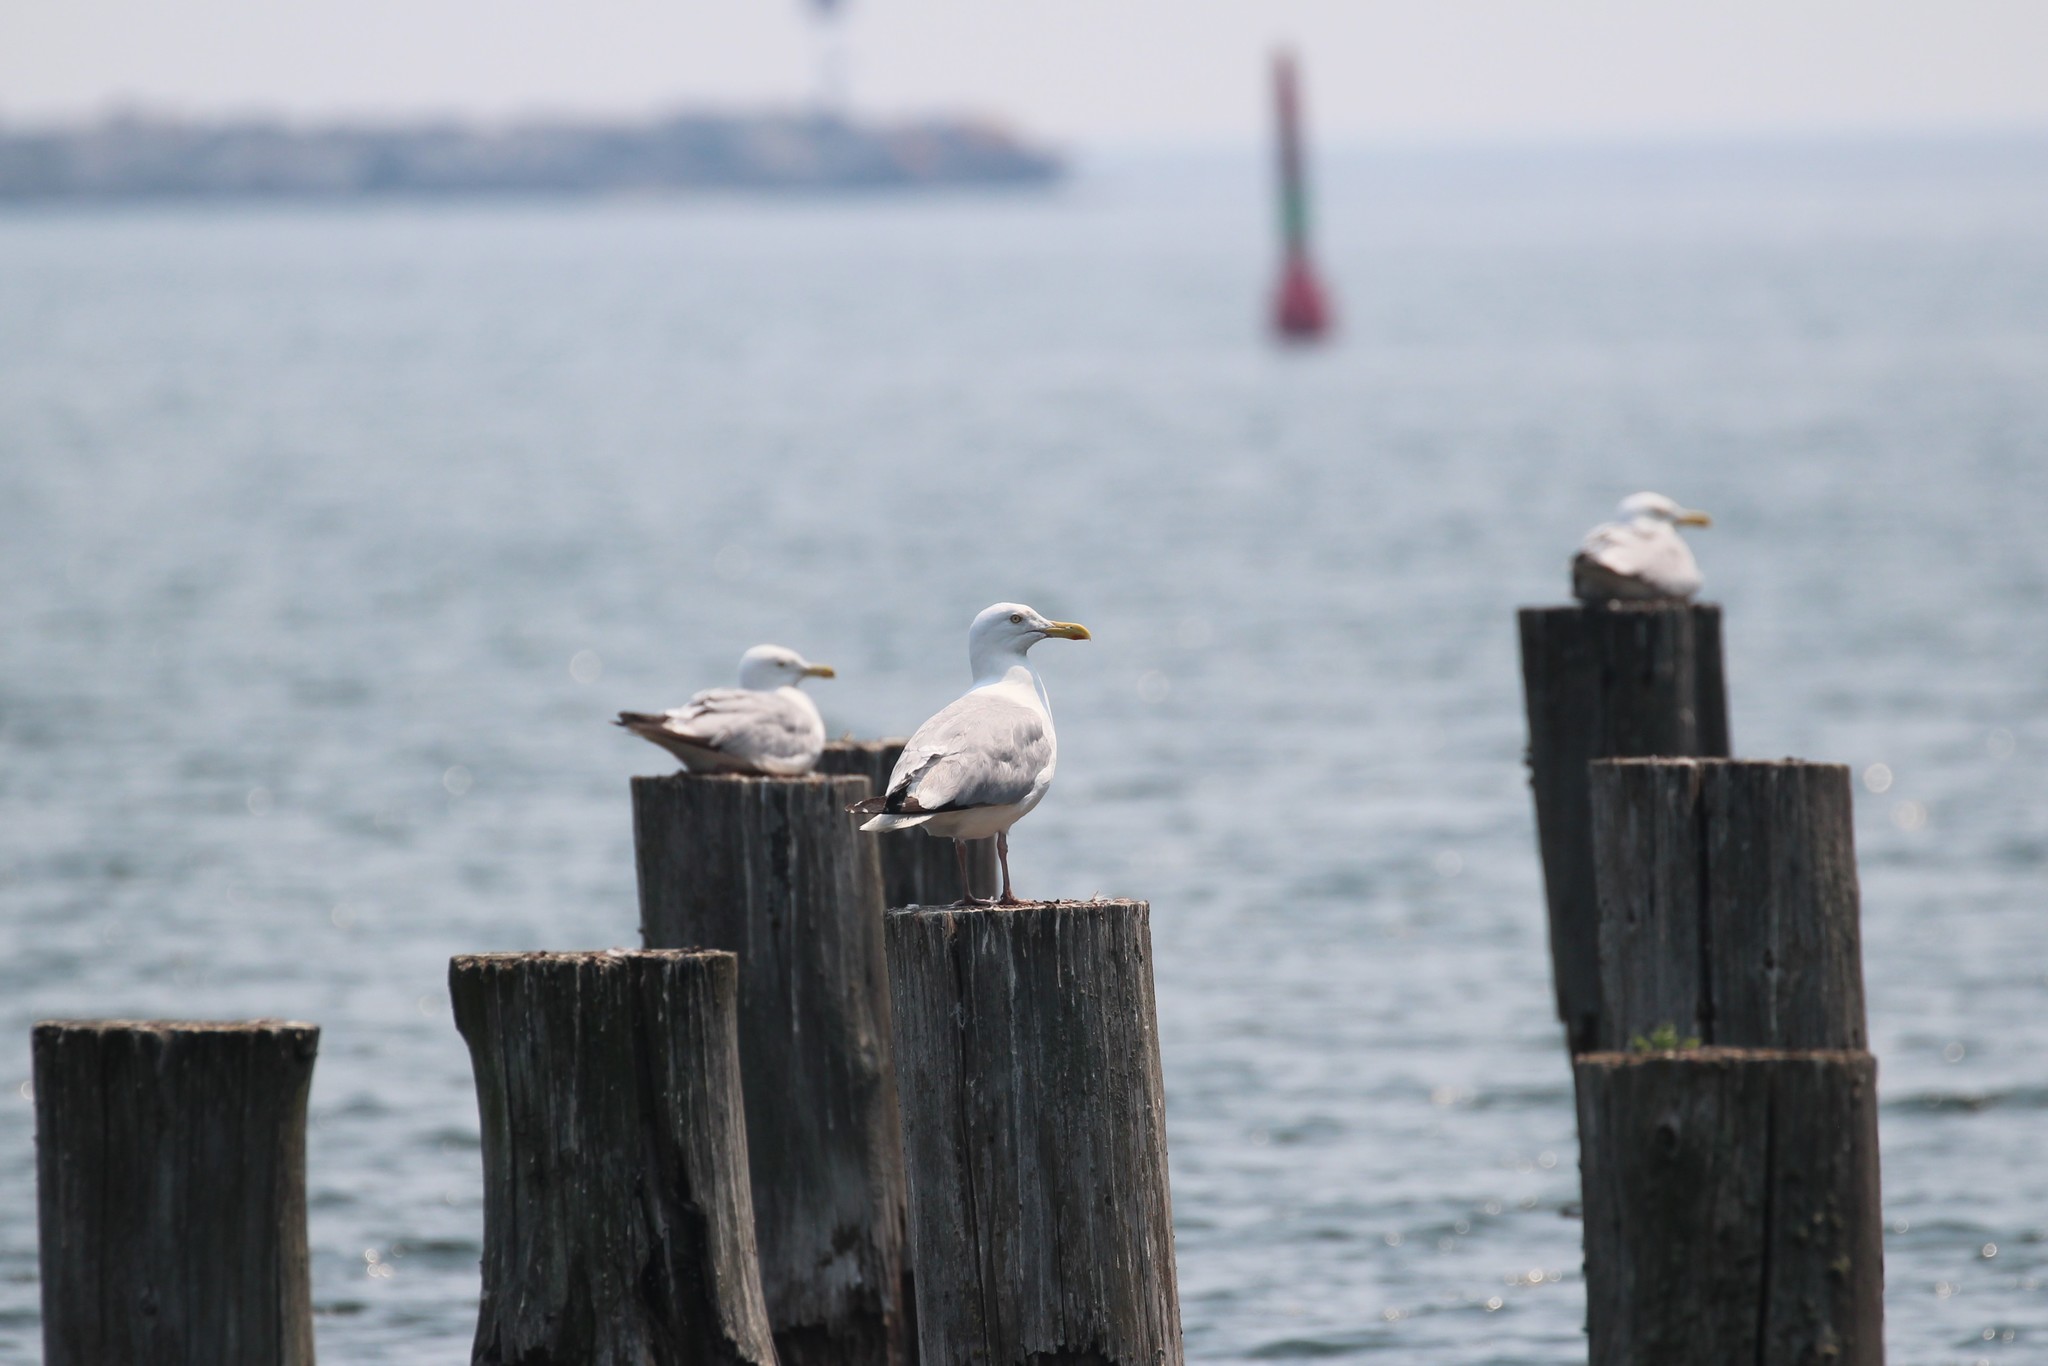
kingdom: Animalia
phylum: Chordata
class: Aves
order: Charadriiformes
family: Laridae
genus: Larus
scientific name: Larus argentatus
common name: Herring gull
